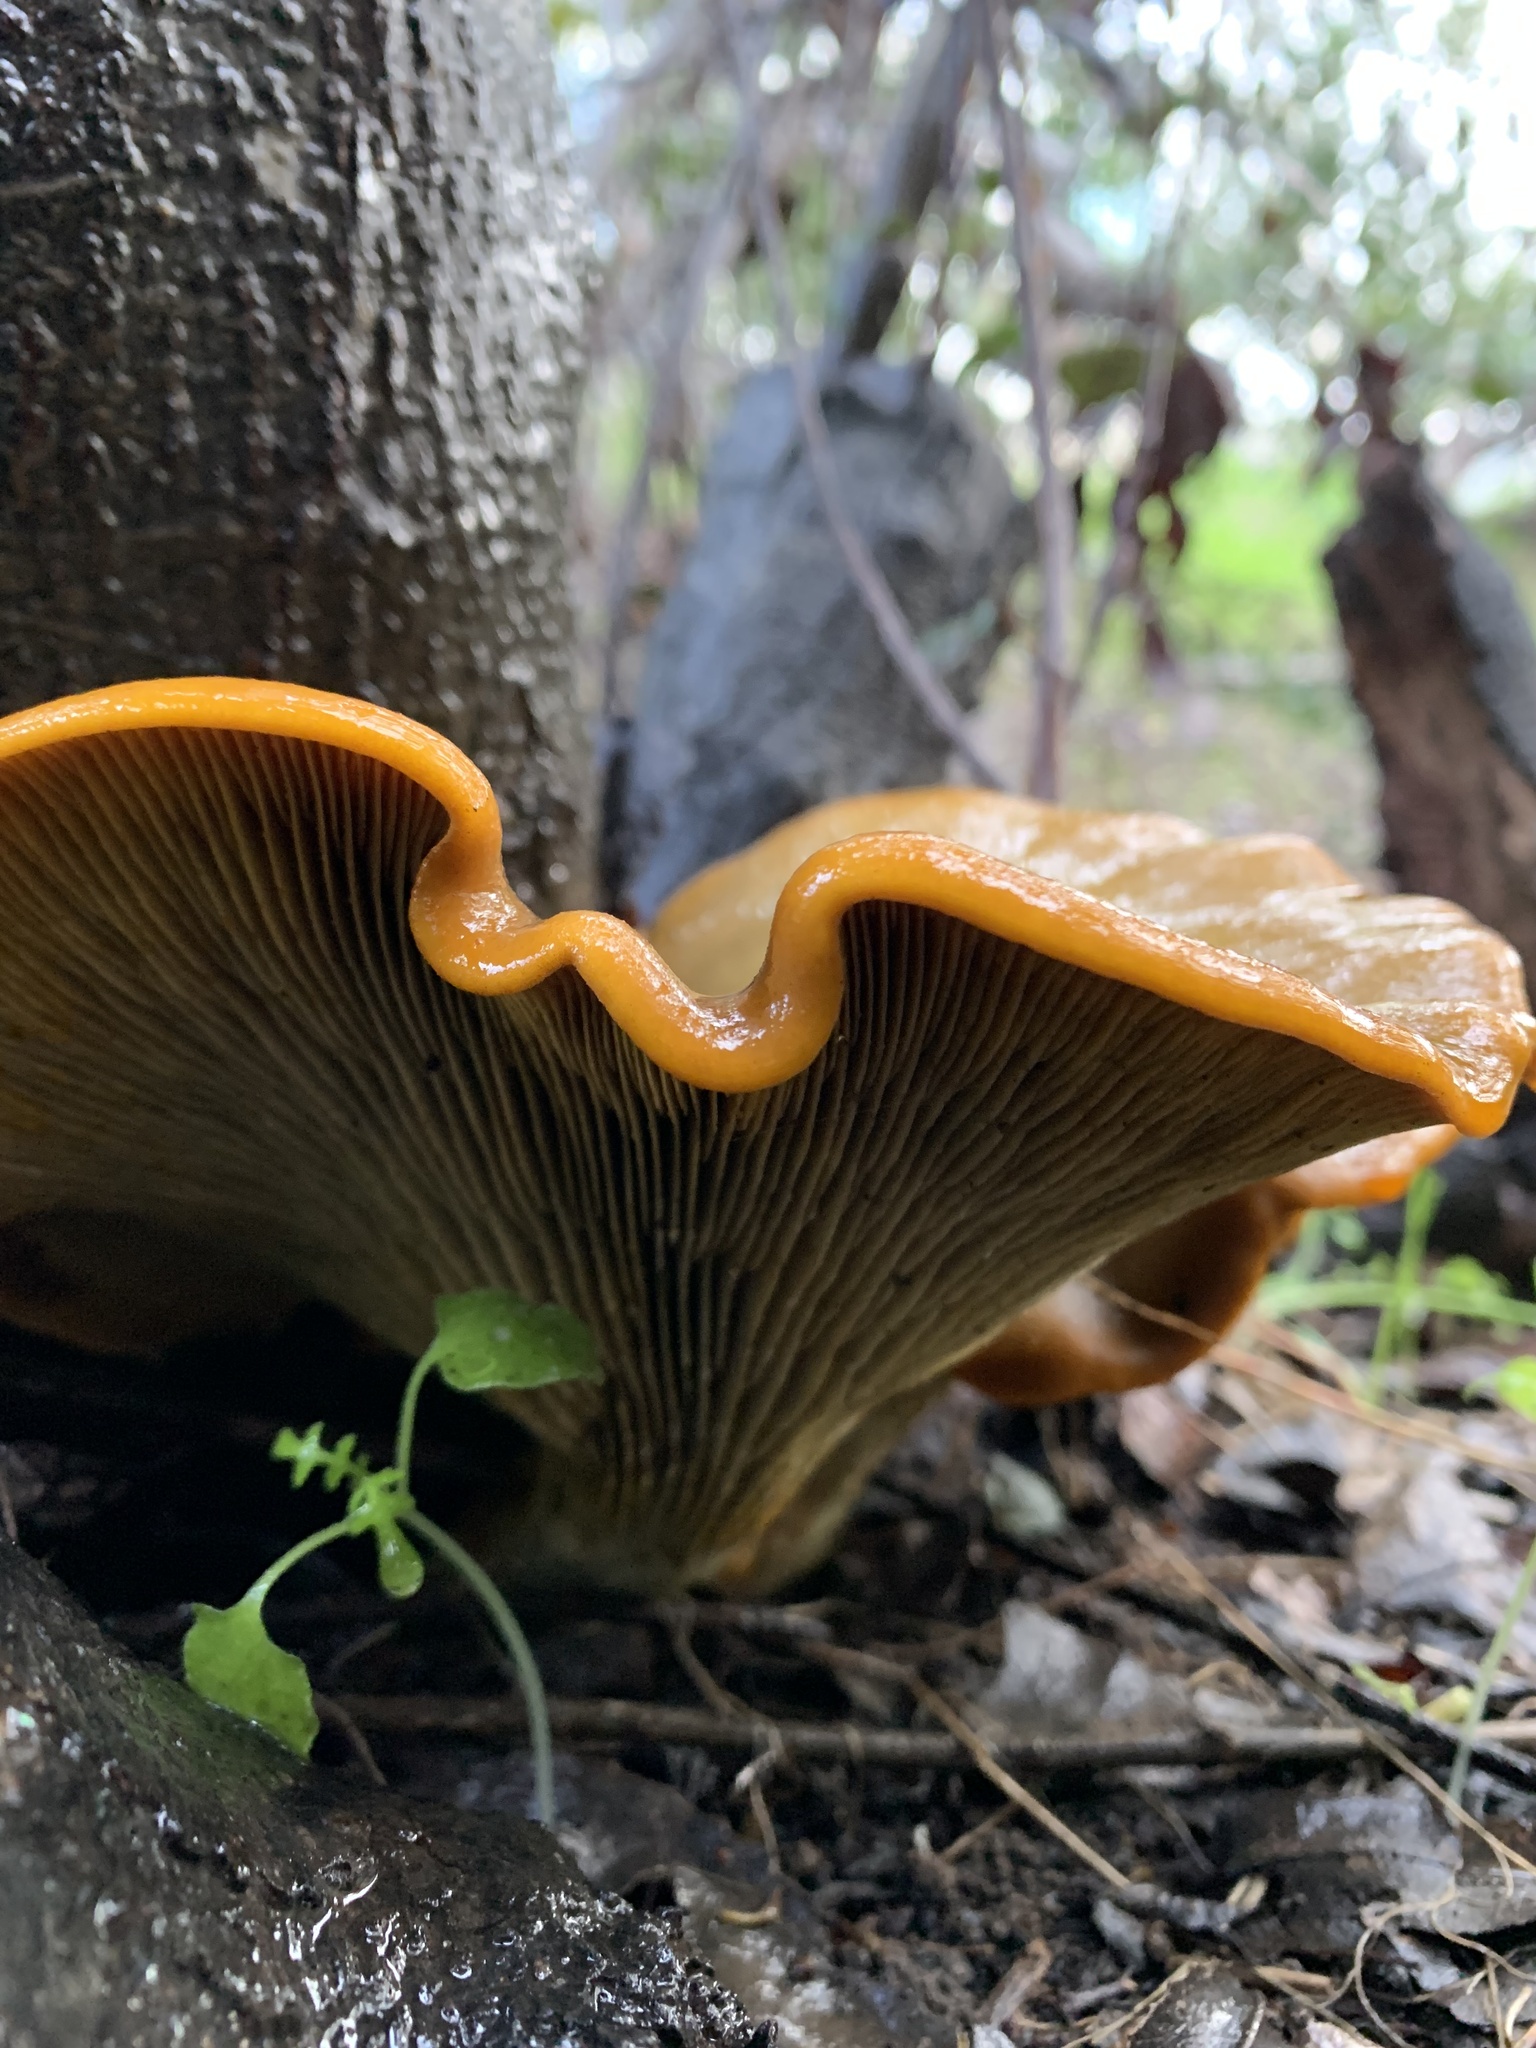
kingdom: Fungi
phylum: Basidiomycota
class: Agaricomycetes
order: Agaricales
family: Omphalotaceae
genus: Omphalotus
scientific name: Omphalotus olivascens
